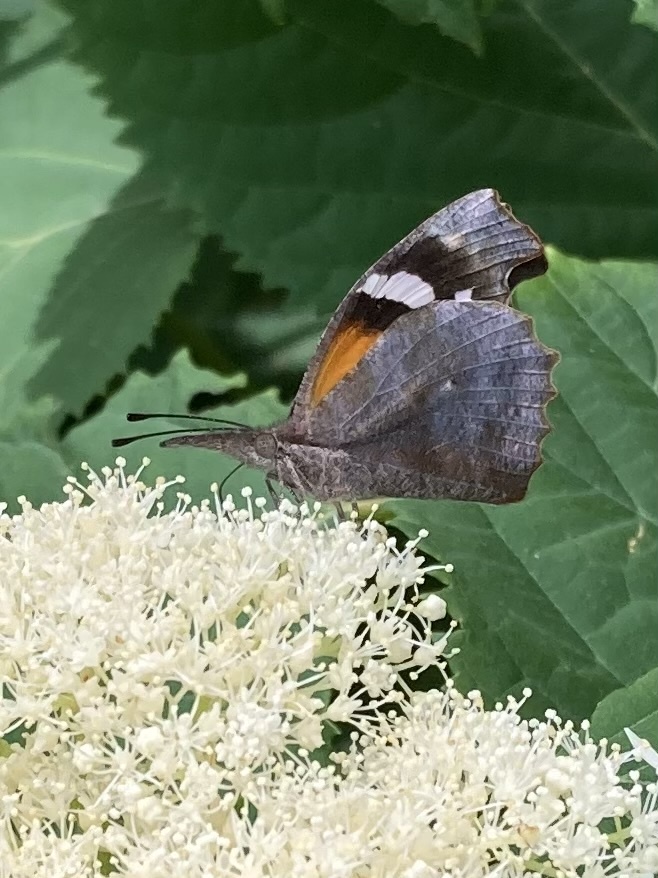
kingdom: Animalia
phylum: Arthropoda
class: Insecta
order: Lepidoptera
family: Nymphalidae
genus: Libytheana
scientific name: Libytheana carinenta
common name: American snout
